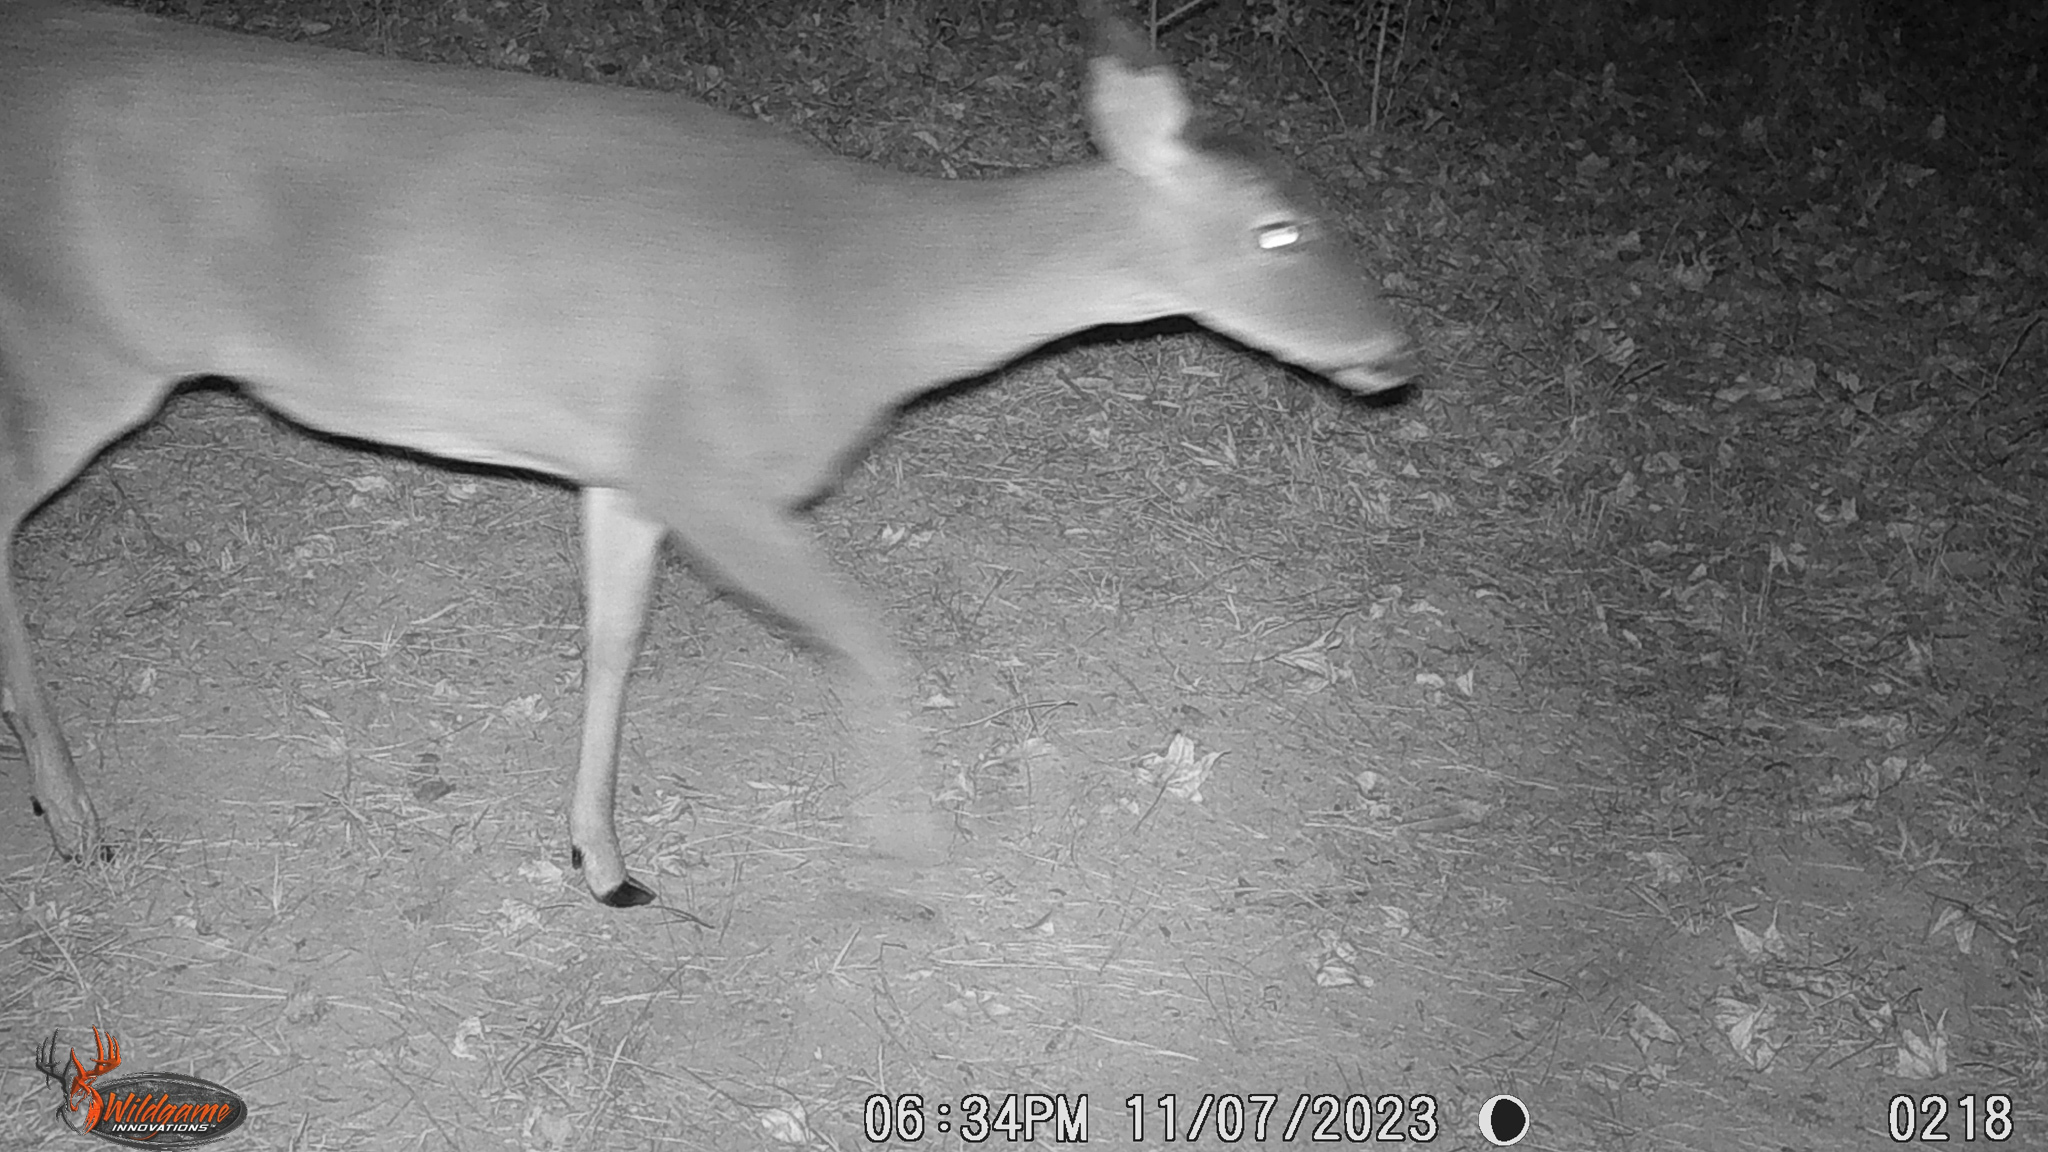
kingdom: Animalia
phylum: Chordata
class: Mammalia
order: Artiodactyla
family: Cervidae
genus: Odocoileus
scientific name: Odocoileus virginianus
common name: White-tailed deer
